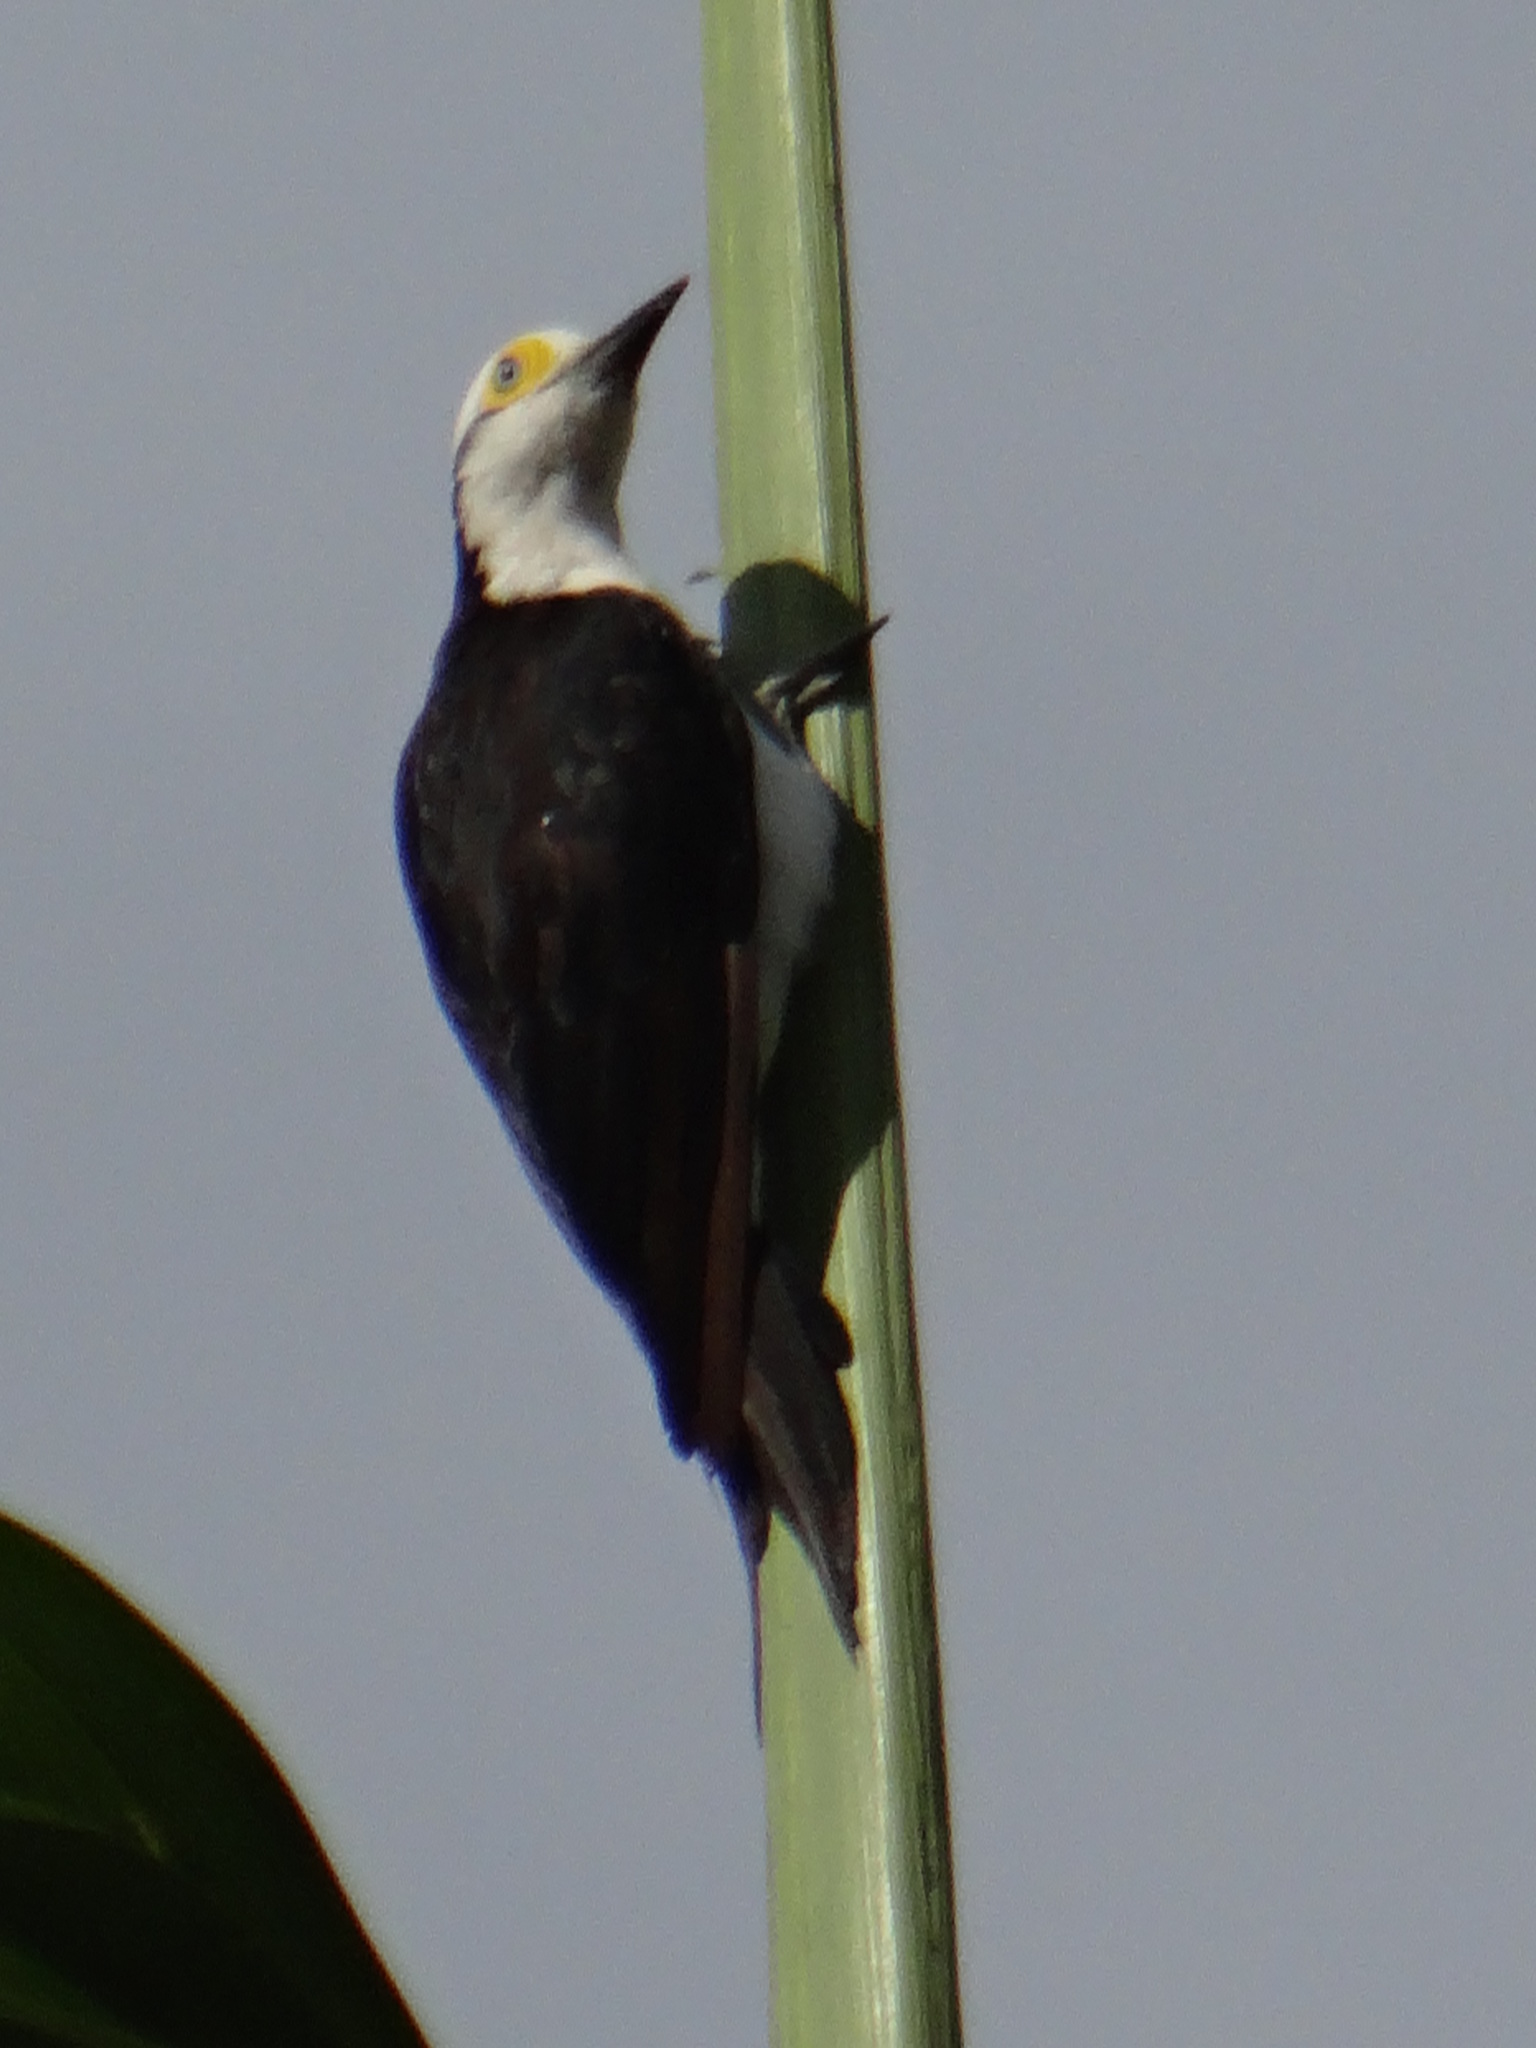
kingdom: Animalia
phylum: Chordata
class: Aves
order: Piciformes
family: Picidae
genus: Melanerpes
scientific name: Melanerpes candidus
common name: White woodpecker
